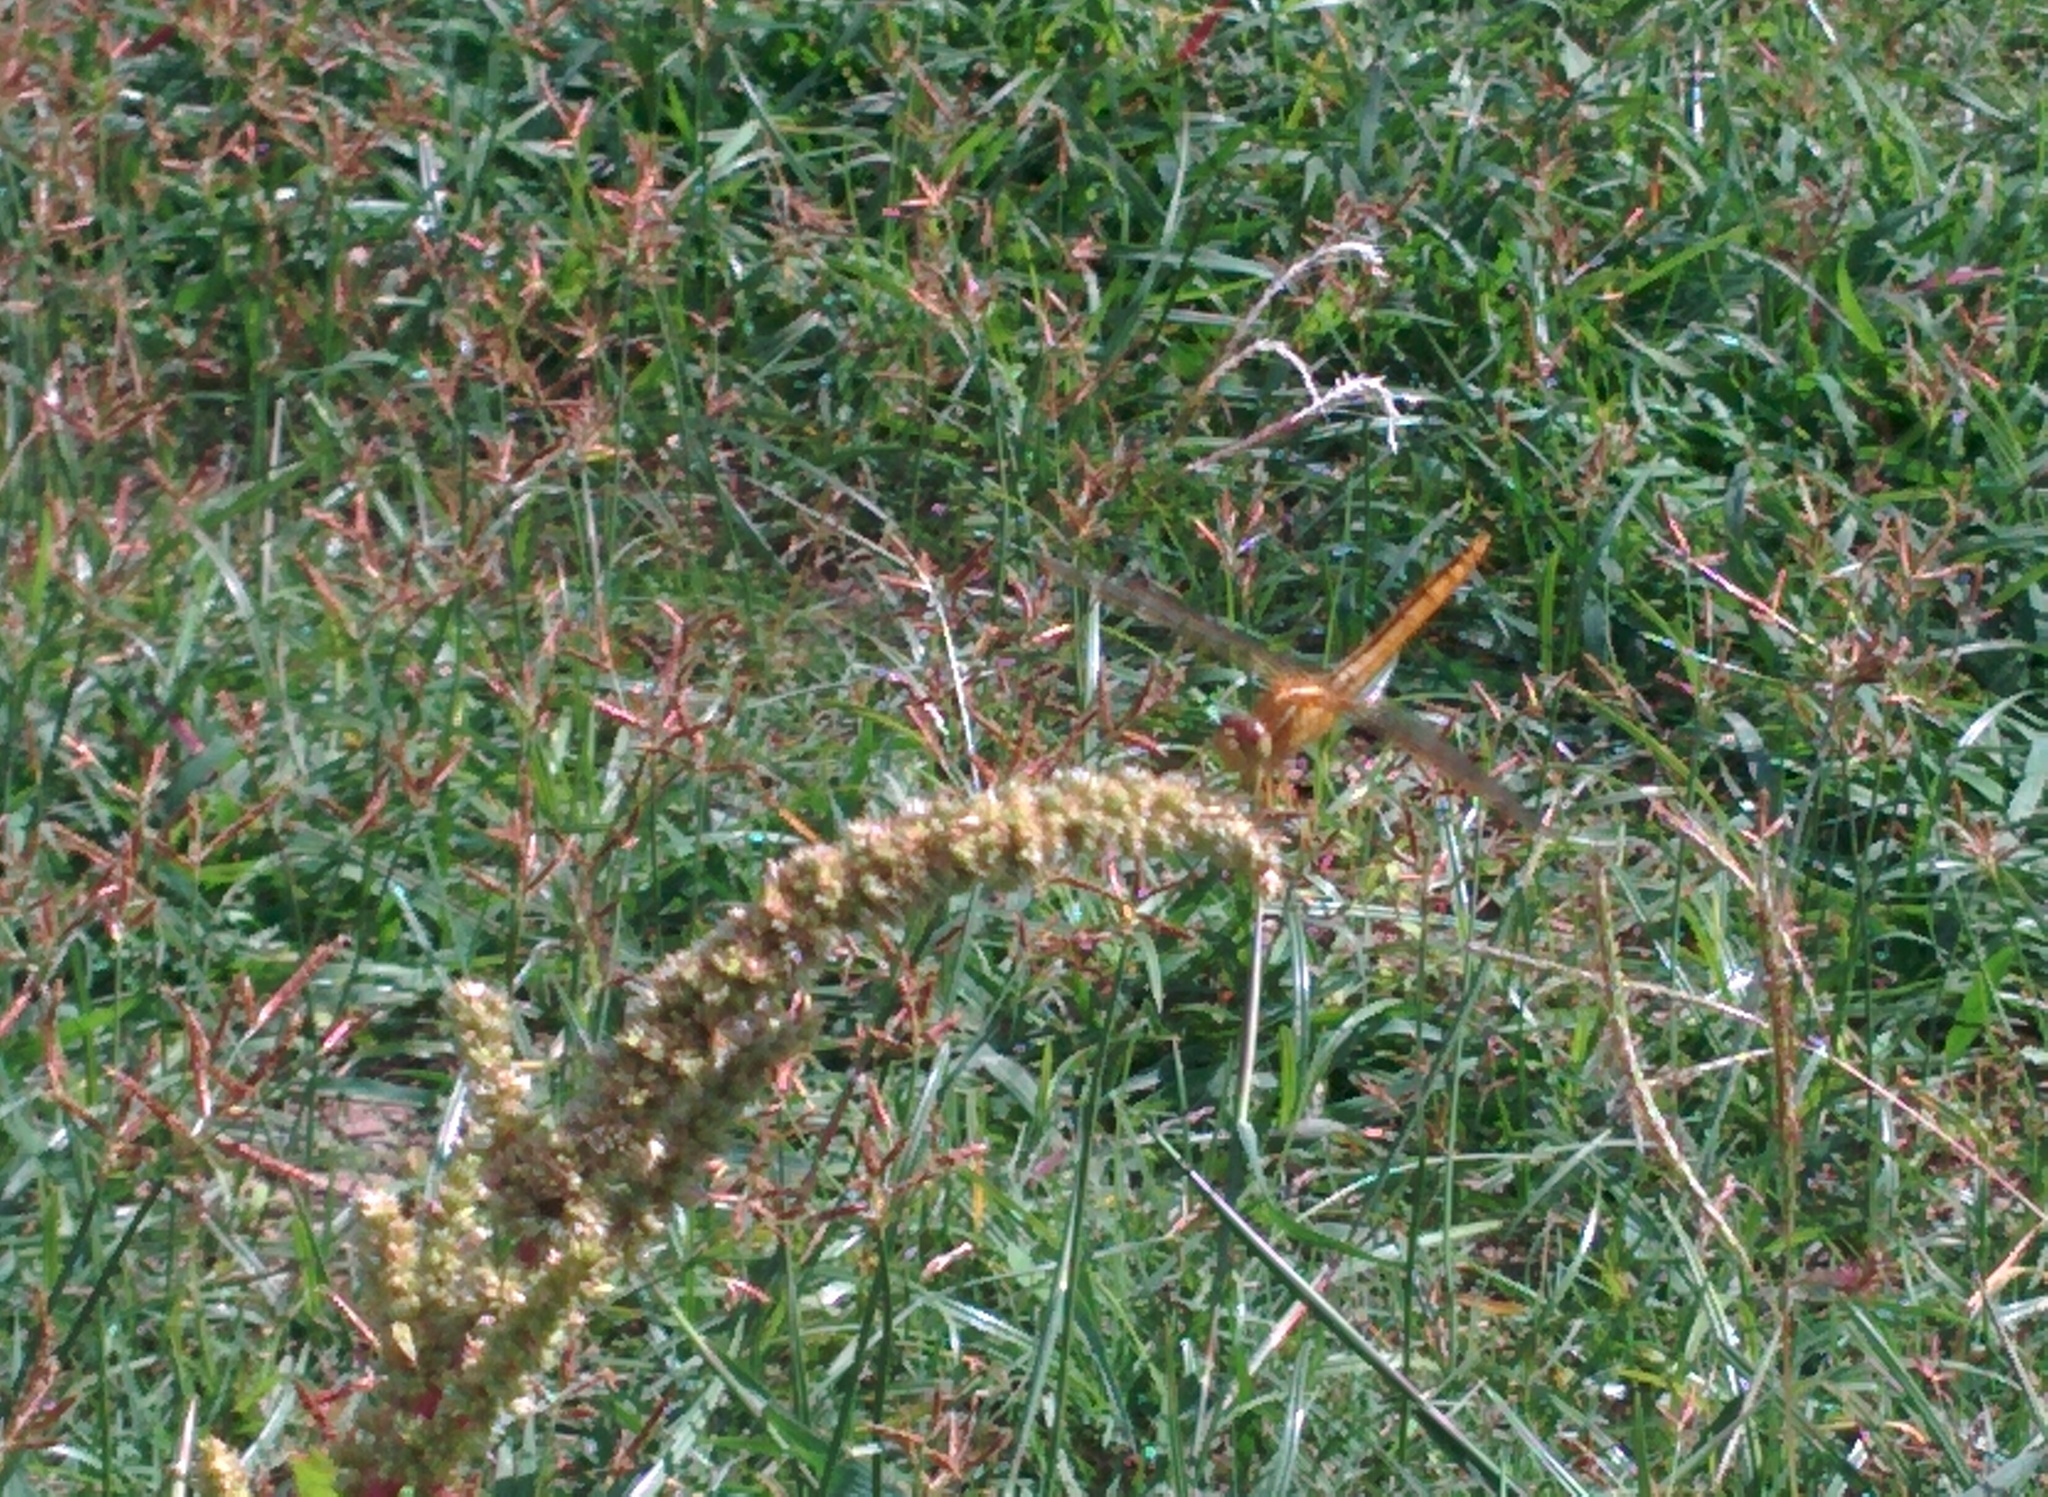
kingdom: Animalia
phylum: Arthropoda
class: Insecta
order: Odonata
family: Libellulidae
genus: Crocothemis
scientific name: Crocothemis servilia
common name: Scarlet skimmer
